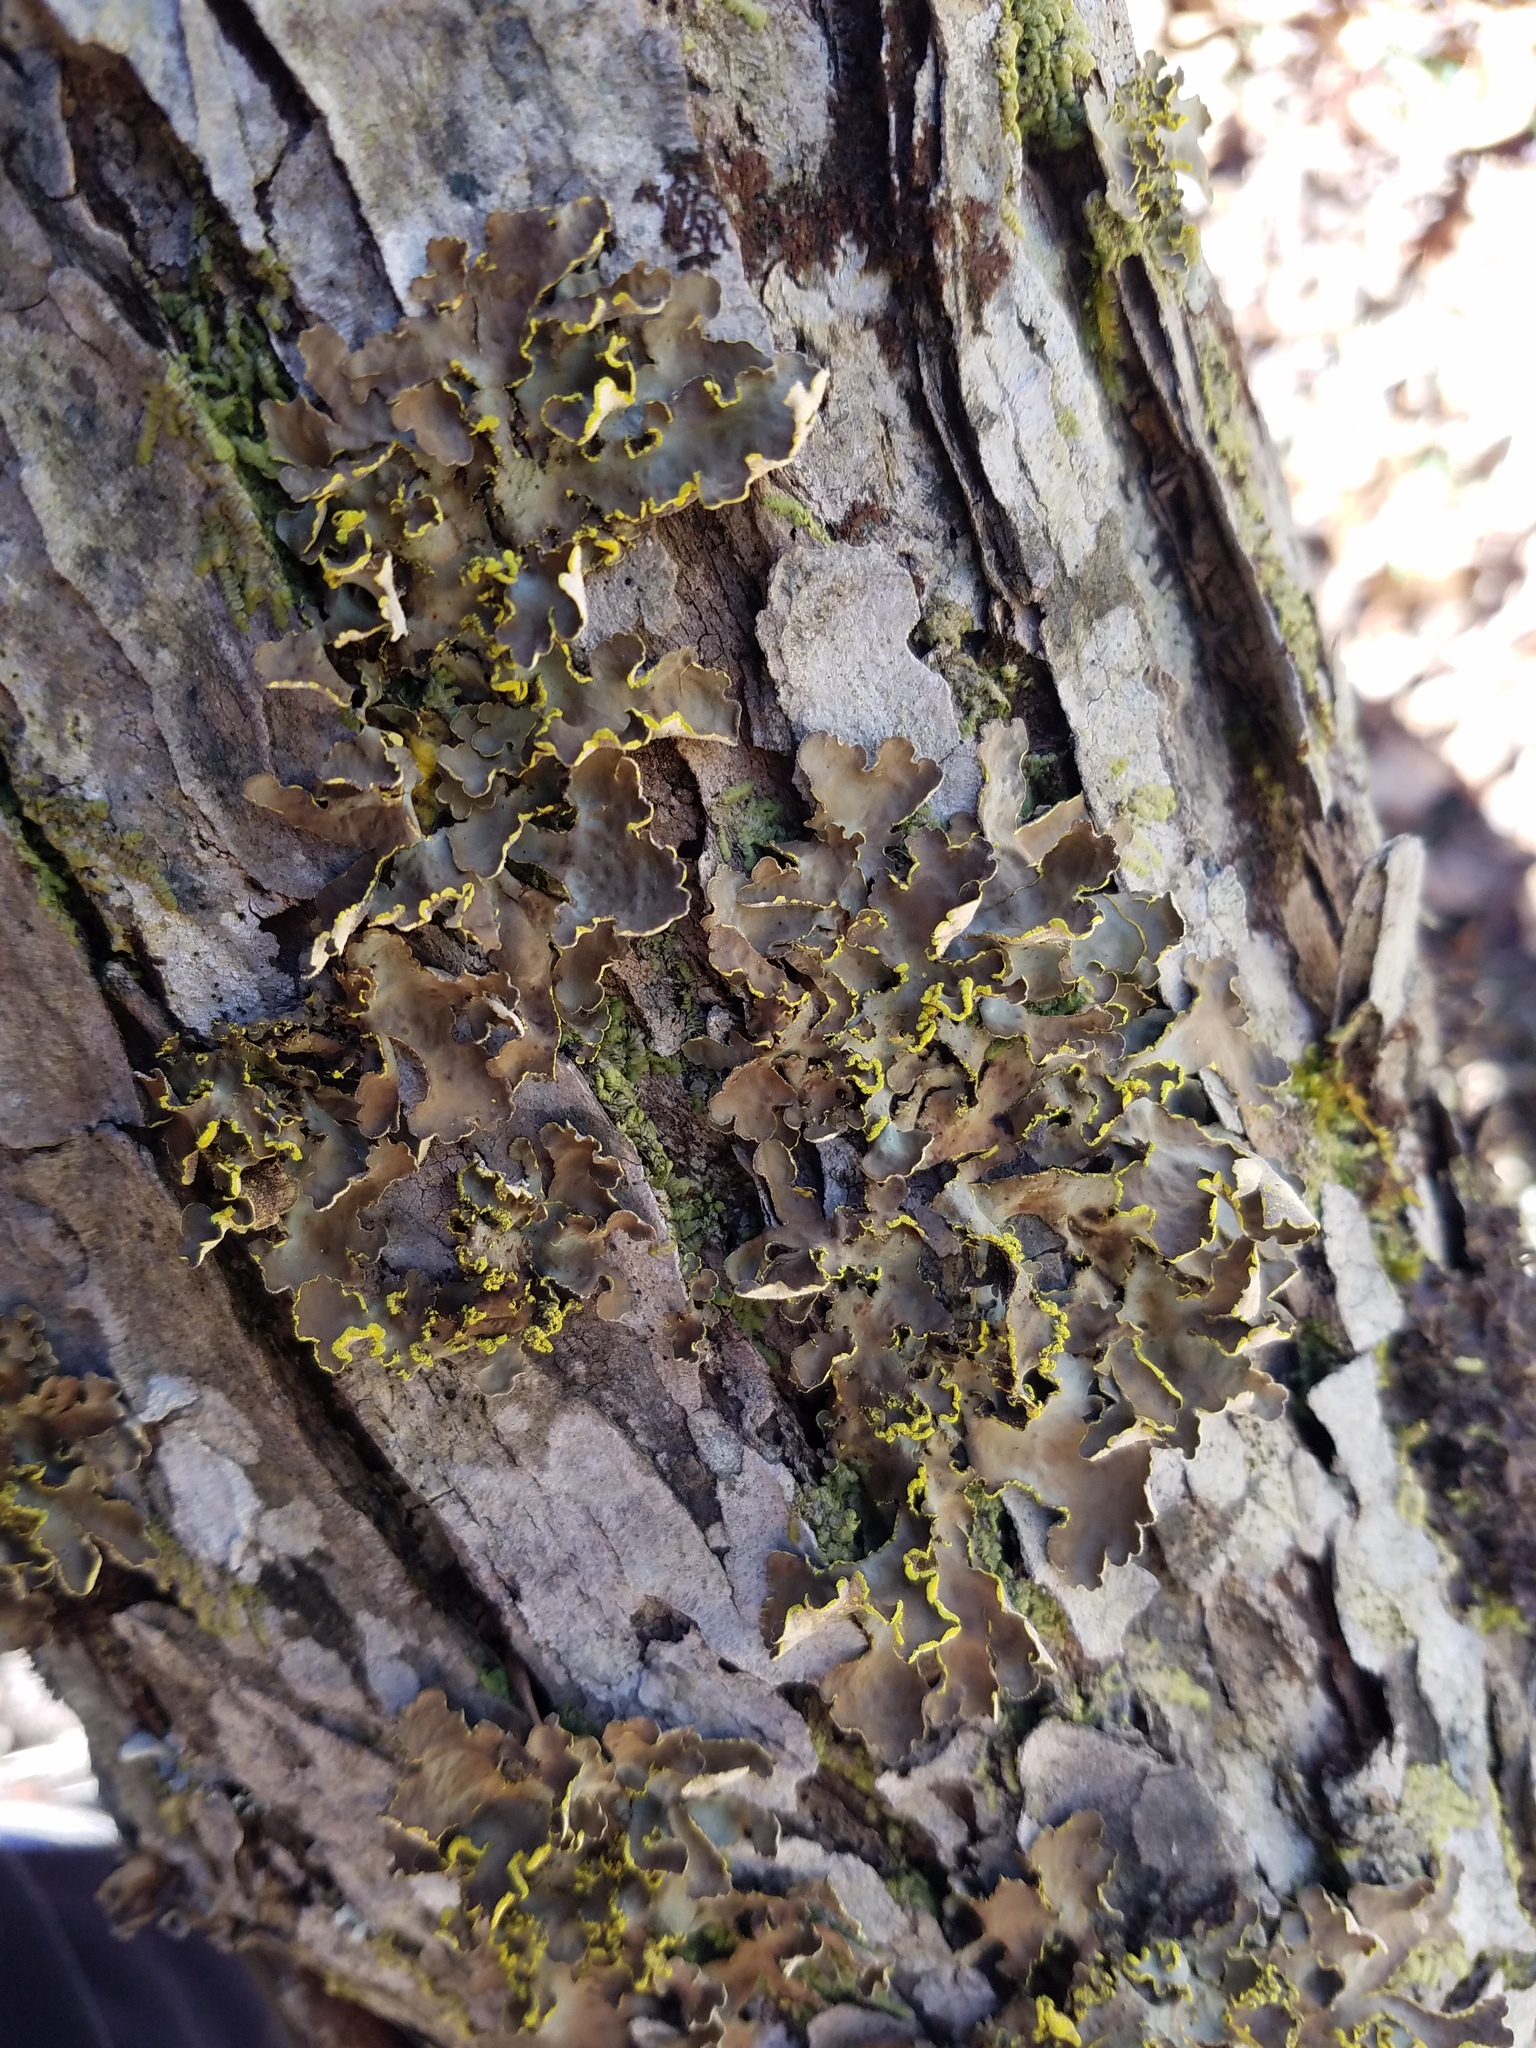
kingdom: Fungi
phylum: Ascomycota
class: Lecanoromycetes
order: Peltigerales
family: Lobariaceae
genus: Pseudocyphellaria
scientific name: Pseudocyphellaria aurata
